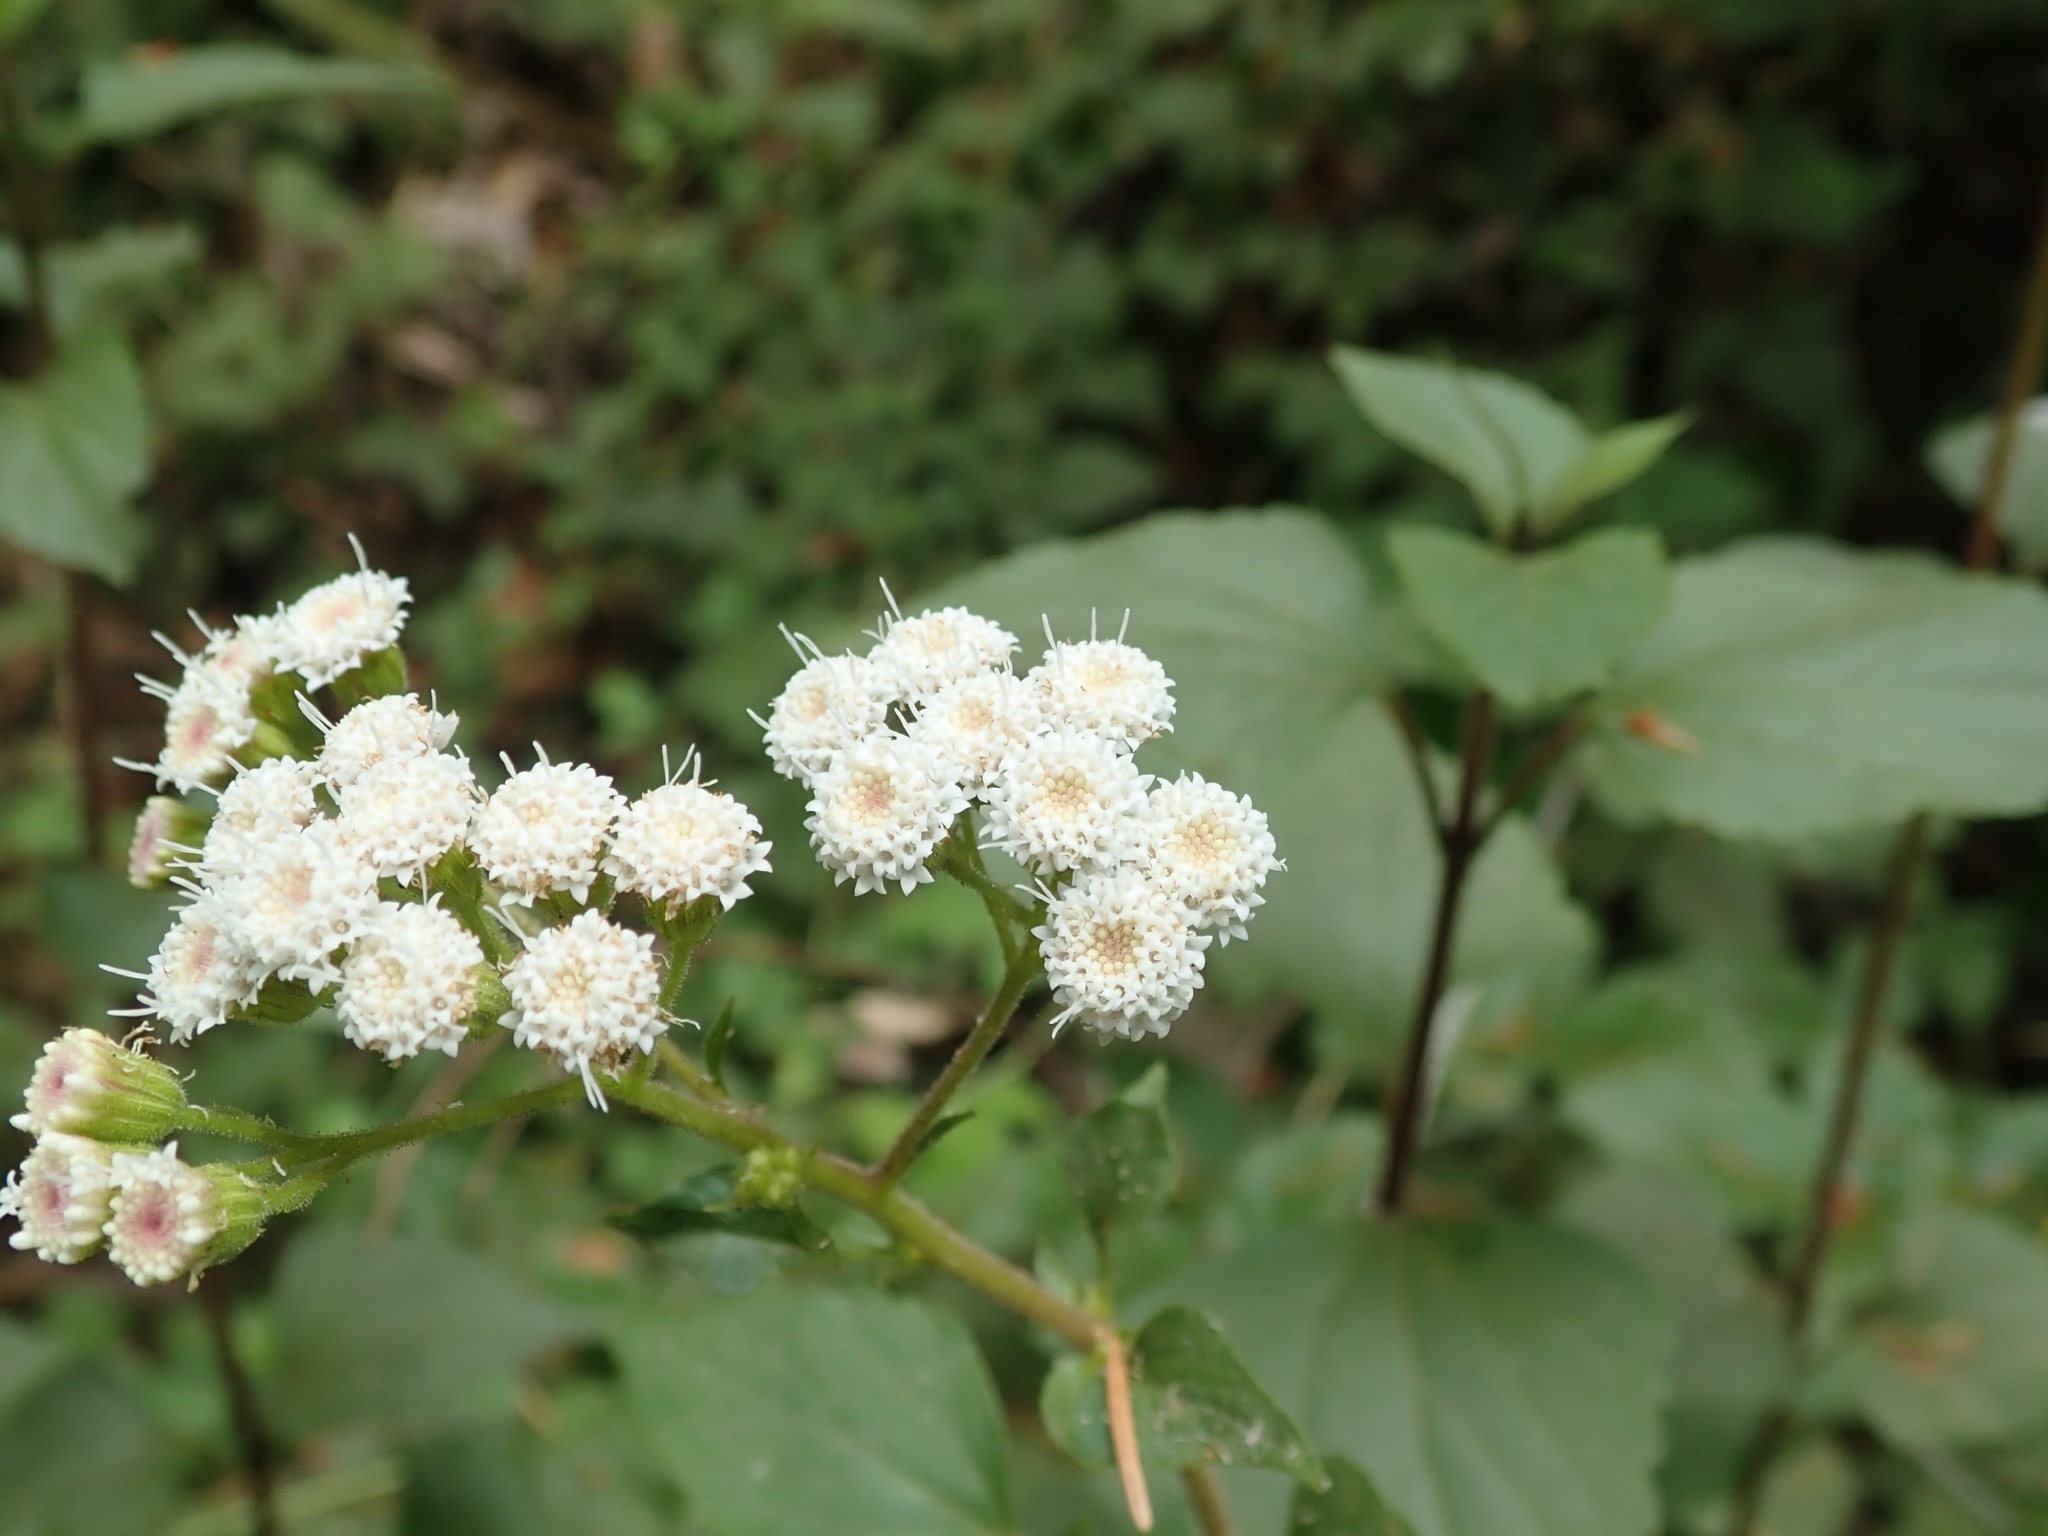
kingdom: Plantae
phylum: Tracheophyta
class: Magnoliopsida
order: Asterales
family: Asteraceae
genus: Ageratina
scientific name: Ageratina adenophora
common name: Sticky snakeroot
